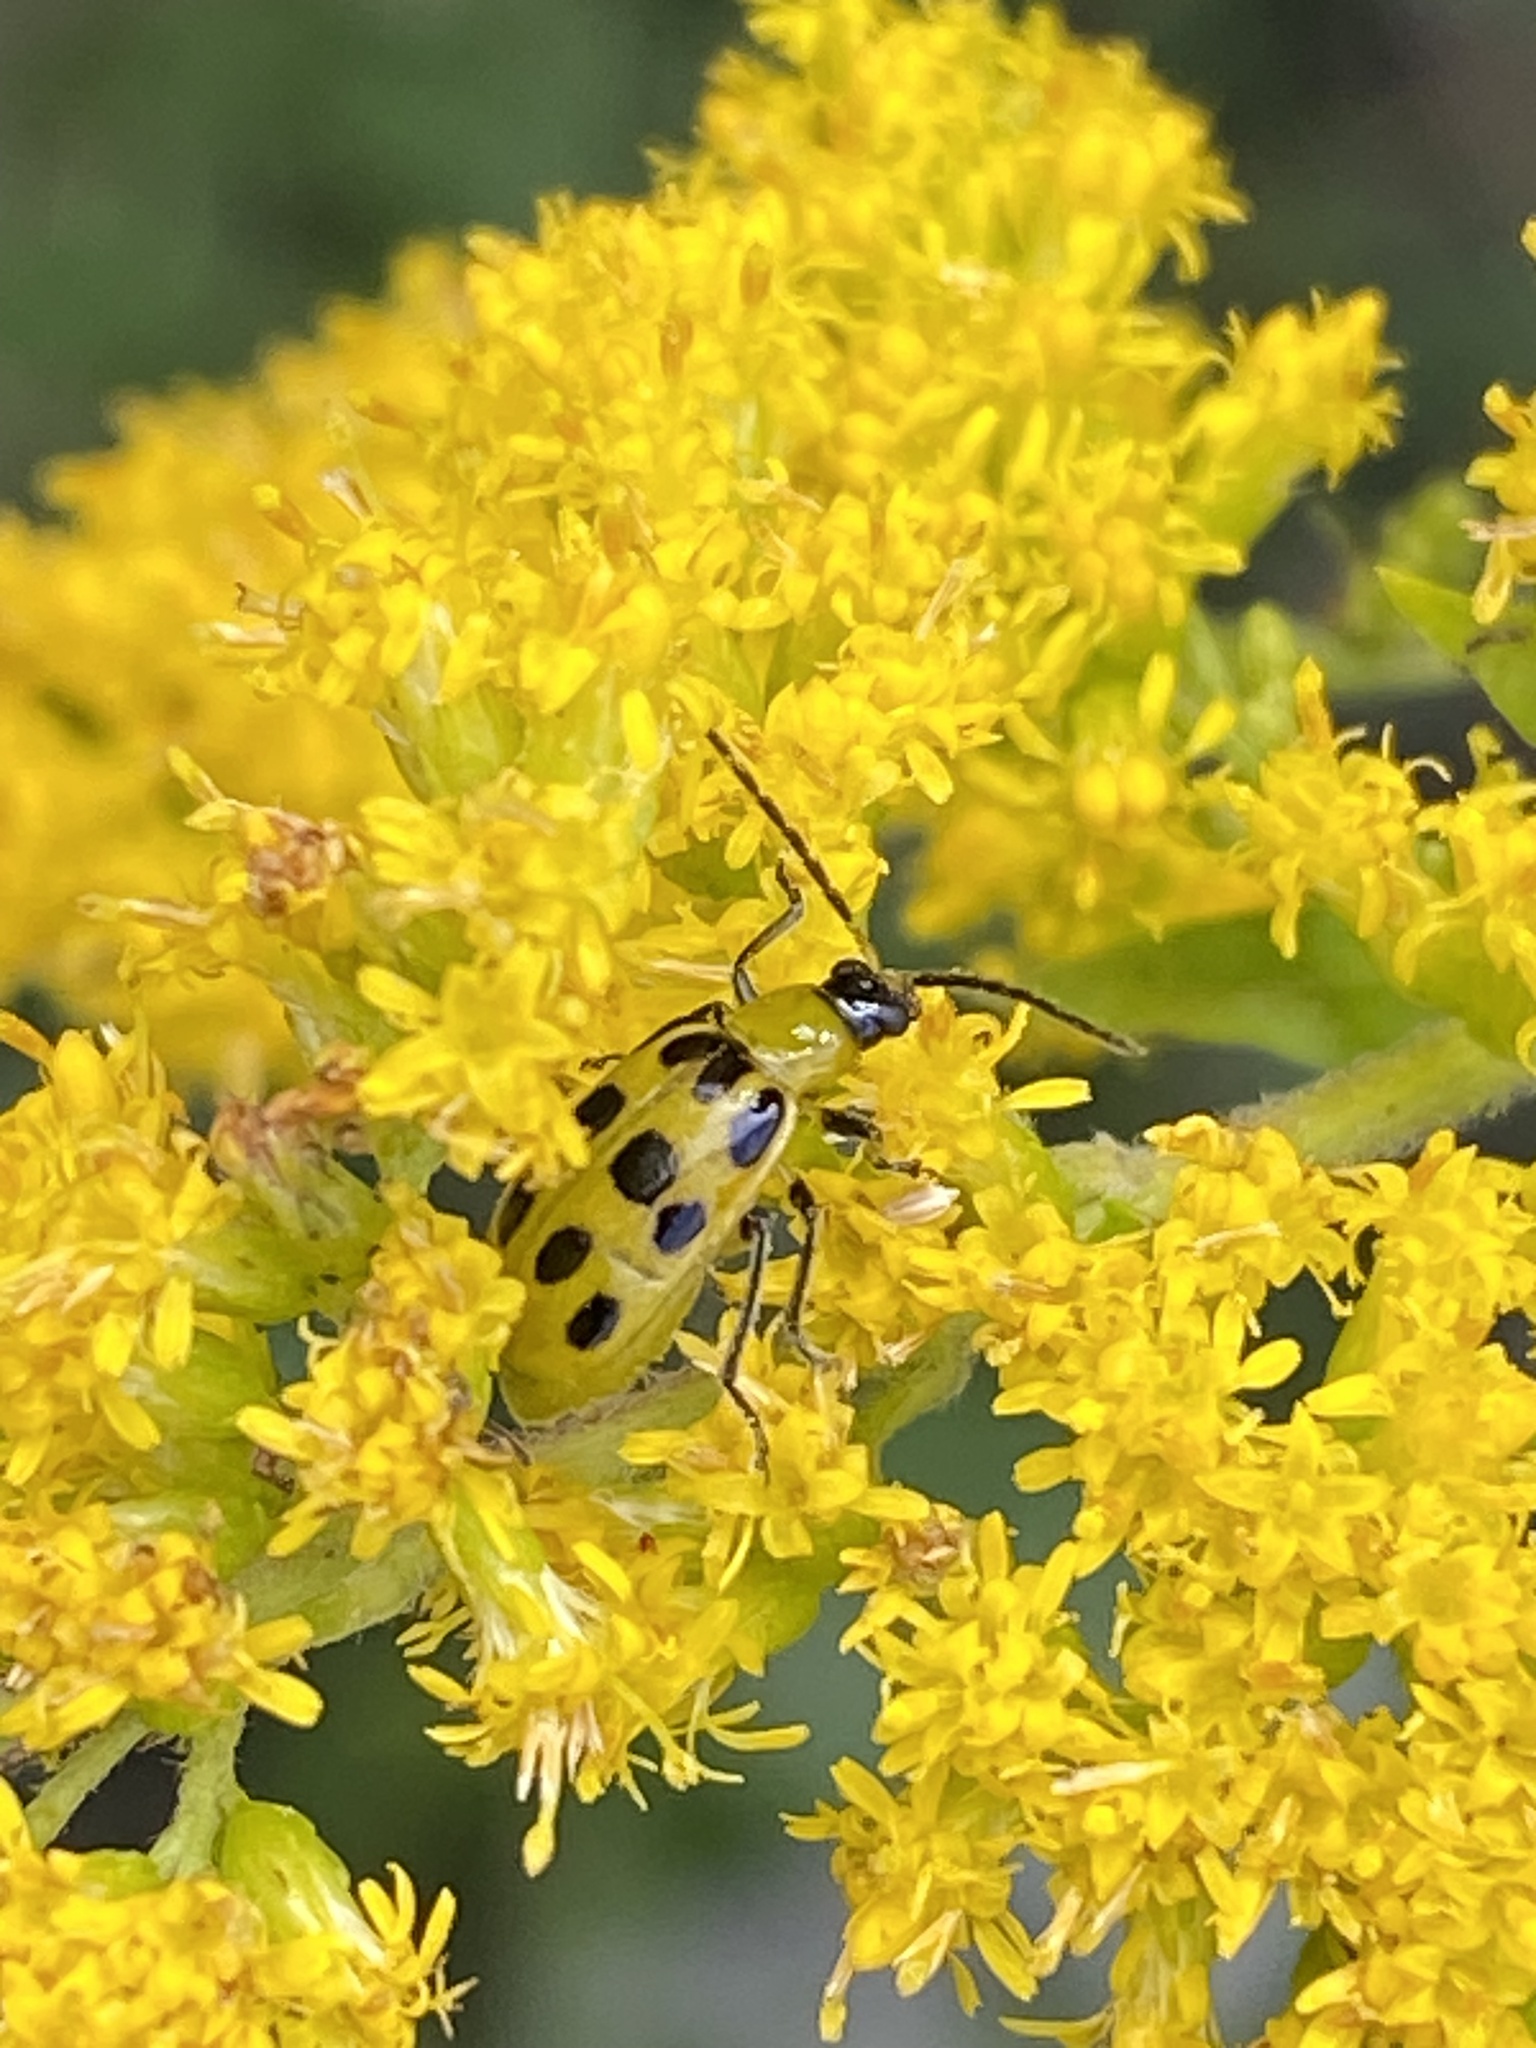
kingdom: Animalia
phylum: Arthropoda
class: Insecta
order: Coleoptera
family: Chrysomelidae
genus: Diabrotica
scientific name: Diabrotica undecimpunctata
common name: Spotted cucumber beetle
